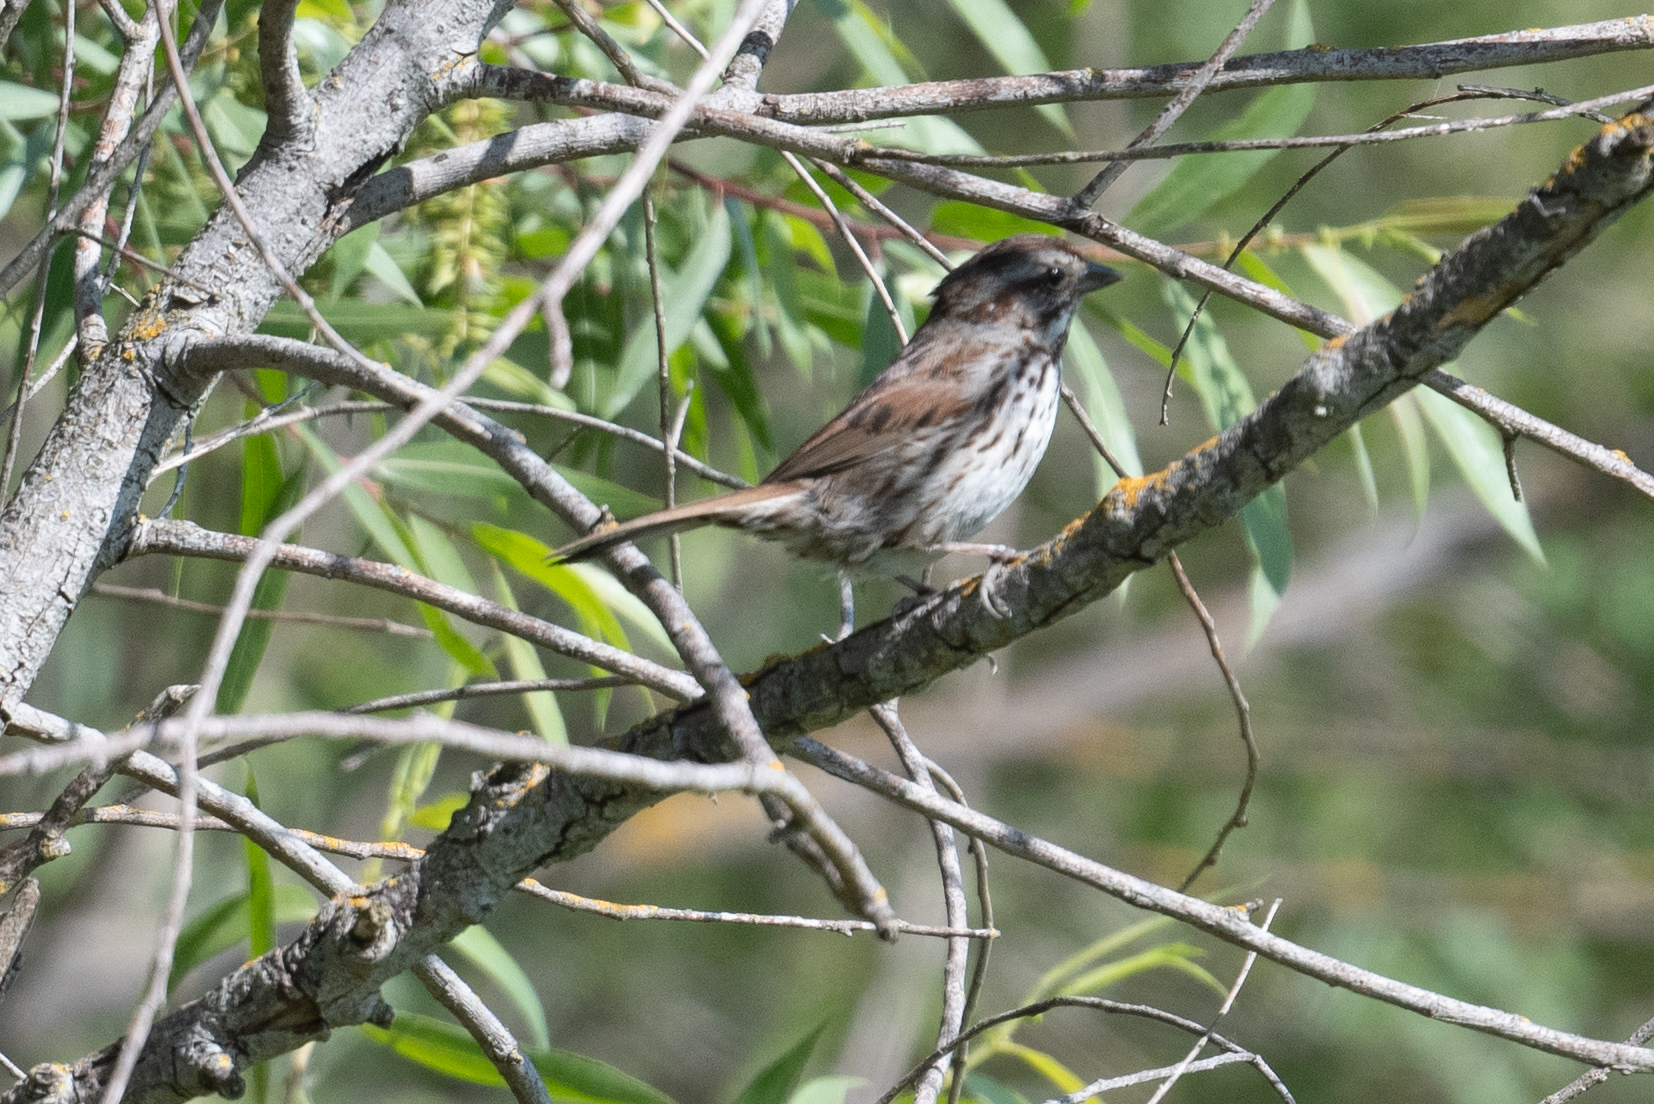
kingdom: Animalia
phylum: Chordata
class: Aves
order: Passeriformes
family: Passerellidae
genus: Melospiza
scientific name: Melospiza melodia
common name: Song sparrow
